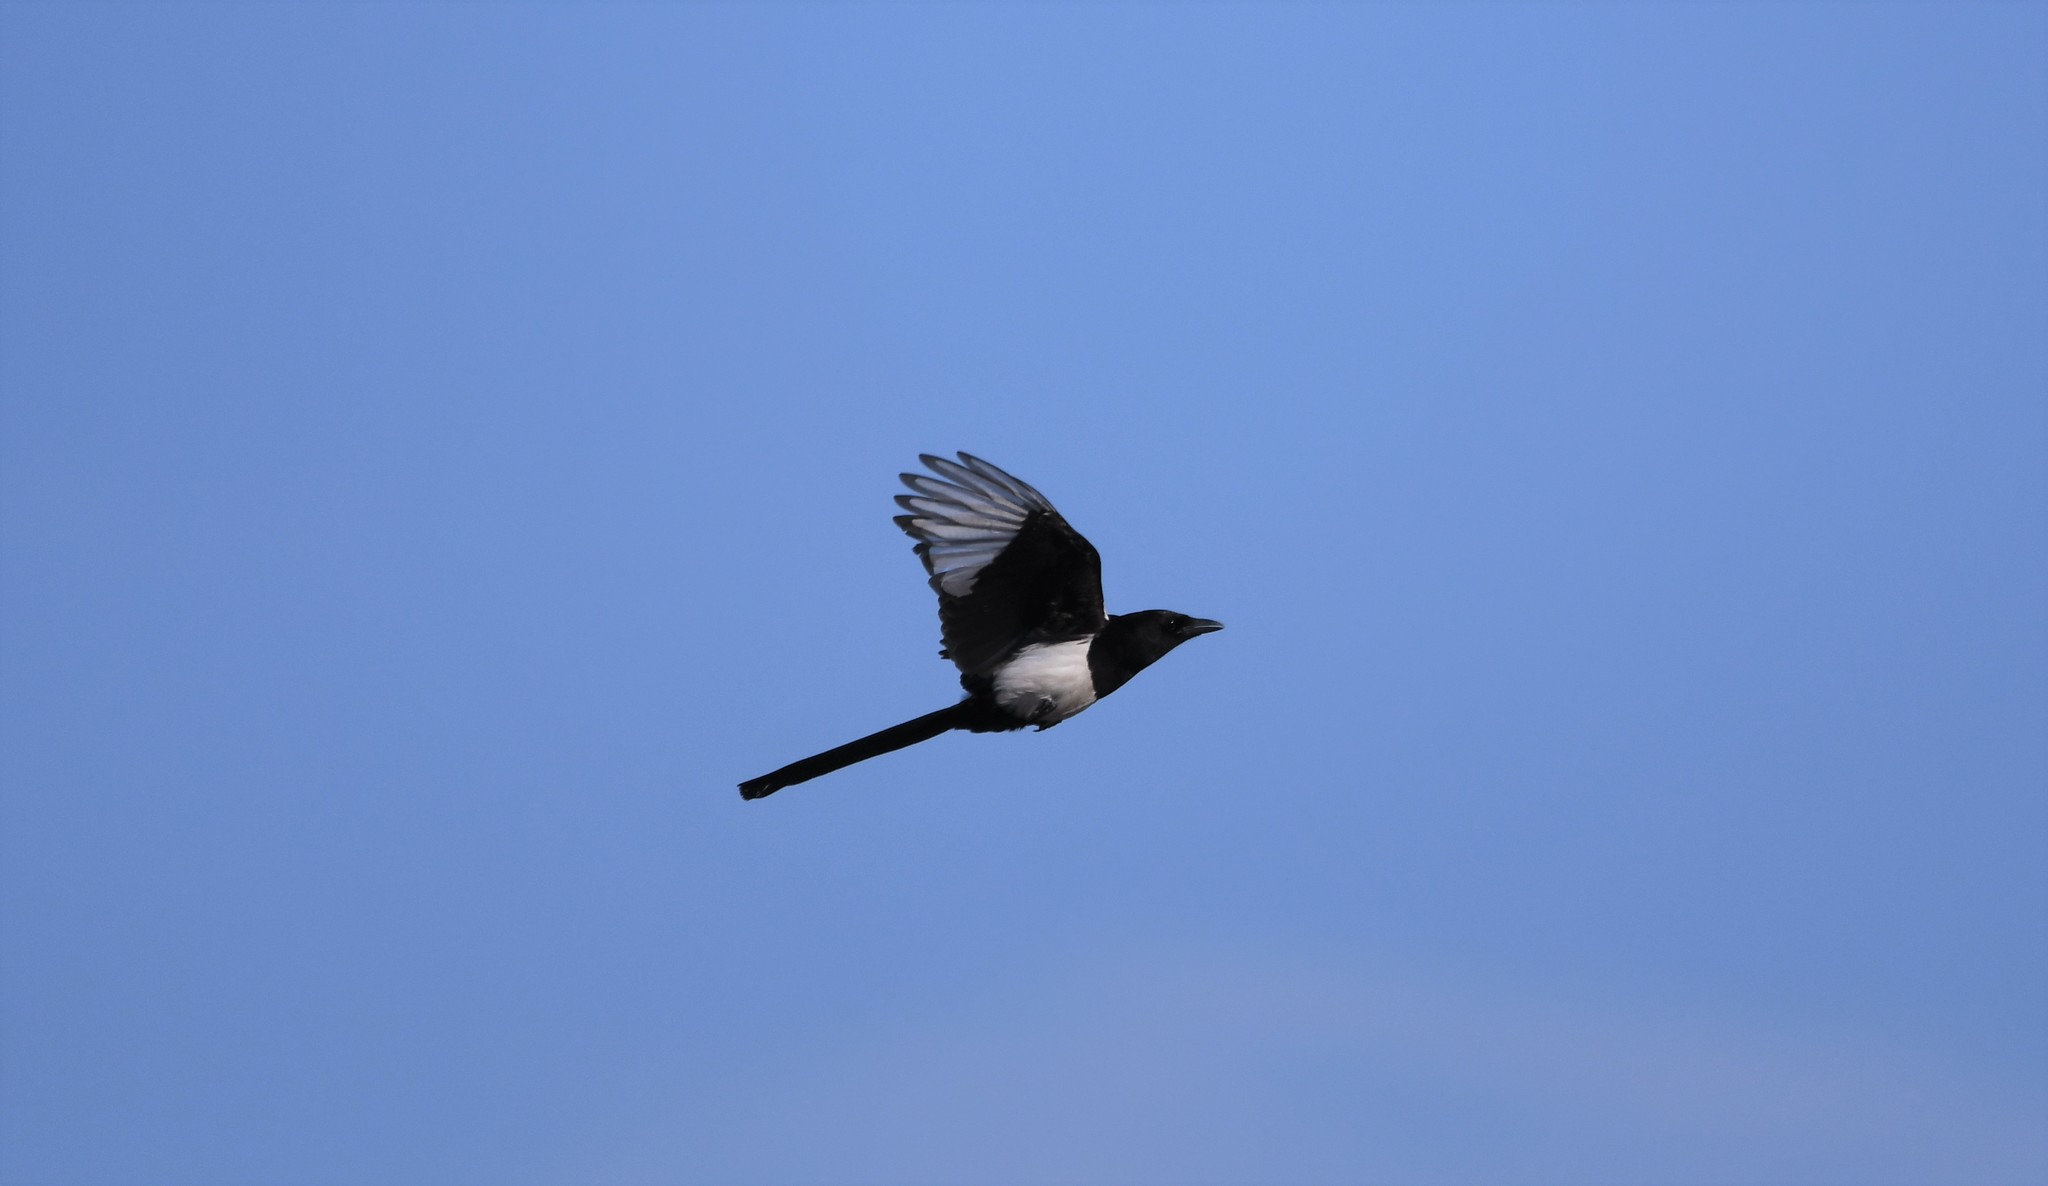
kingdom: Animalia
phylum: Chordata
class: Aves
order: Passeriformes
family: Corvidae
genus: Pica
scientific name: Pica pica
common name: Eurasian magpie
